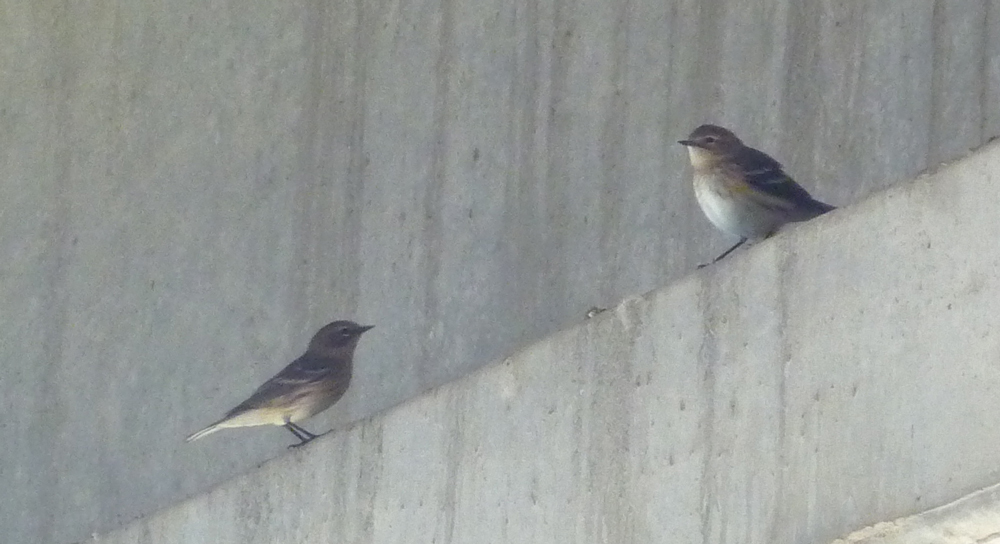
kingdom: Animalia
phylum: Chordata
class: Aves
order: Passeriformes
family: Parulidae
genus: Setophaga
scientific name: Setophaga coronata
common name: Myrtle warbler
